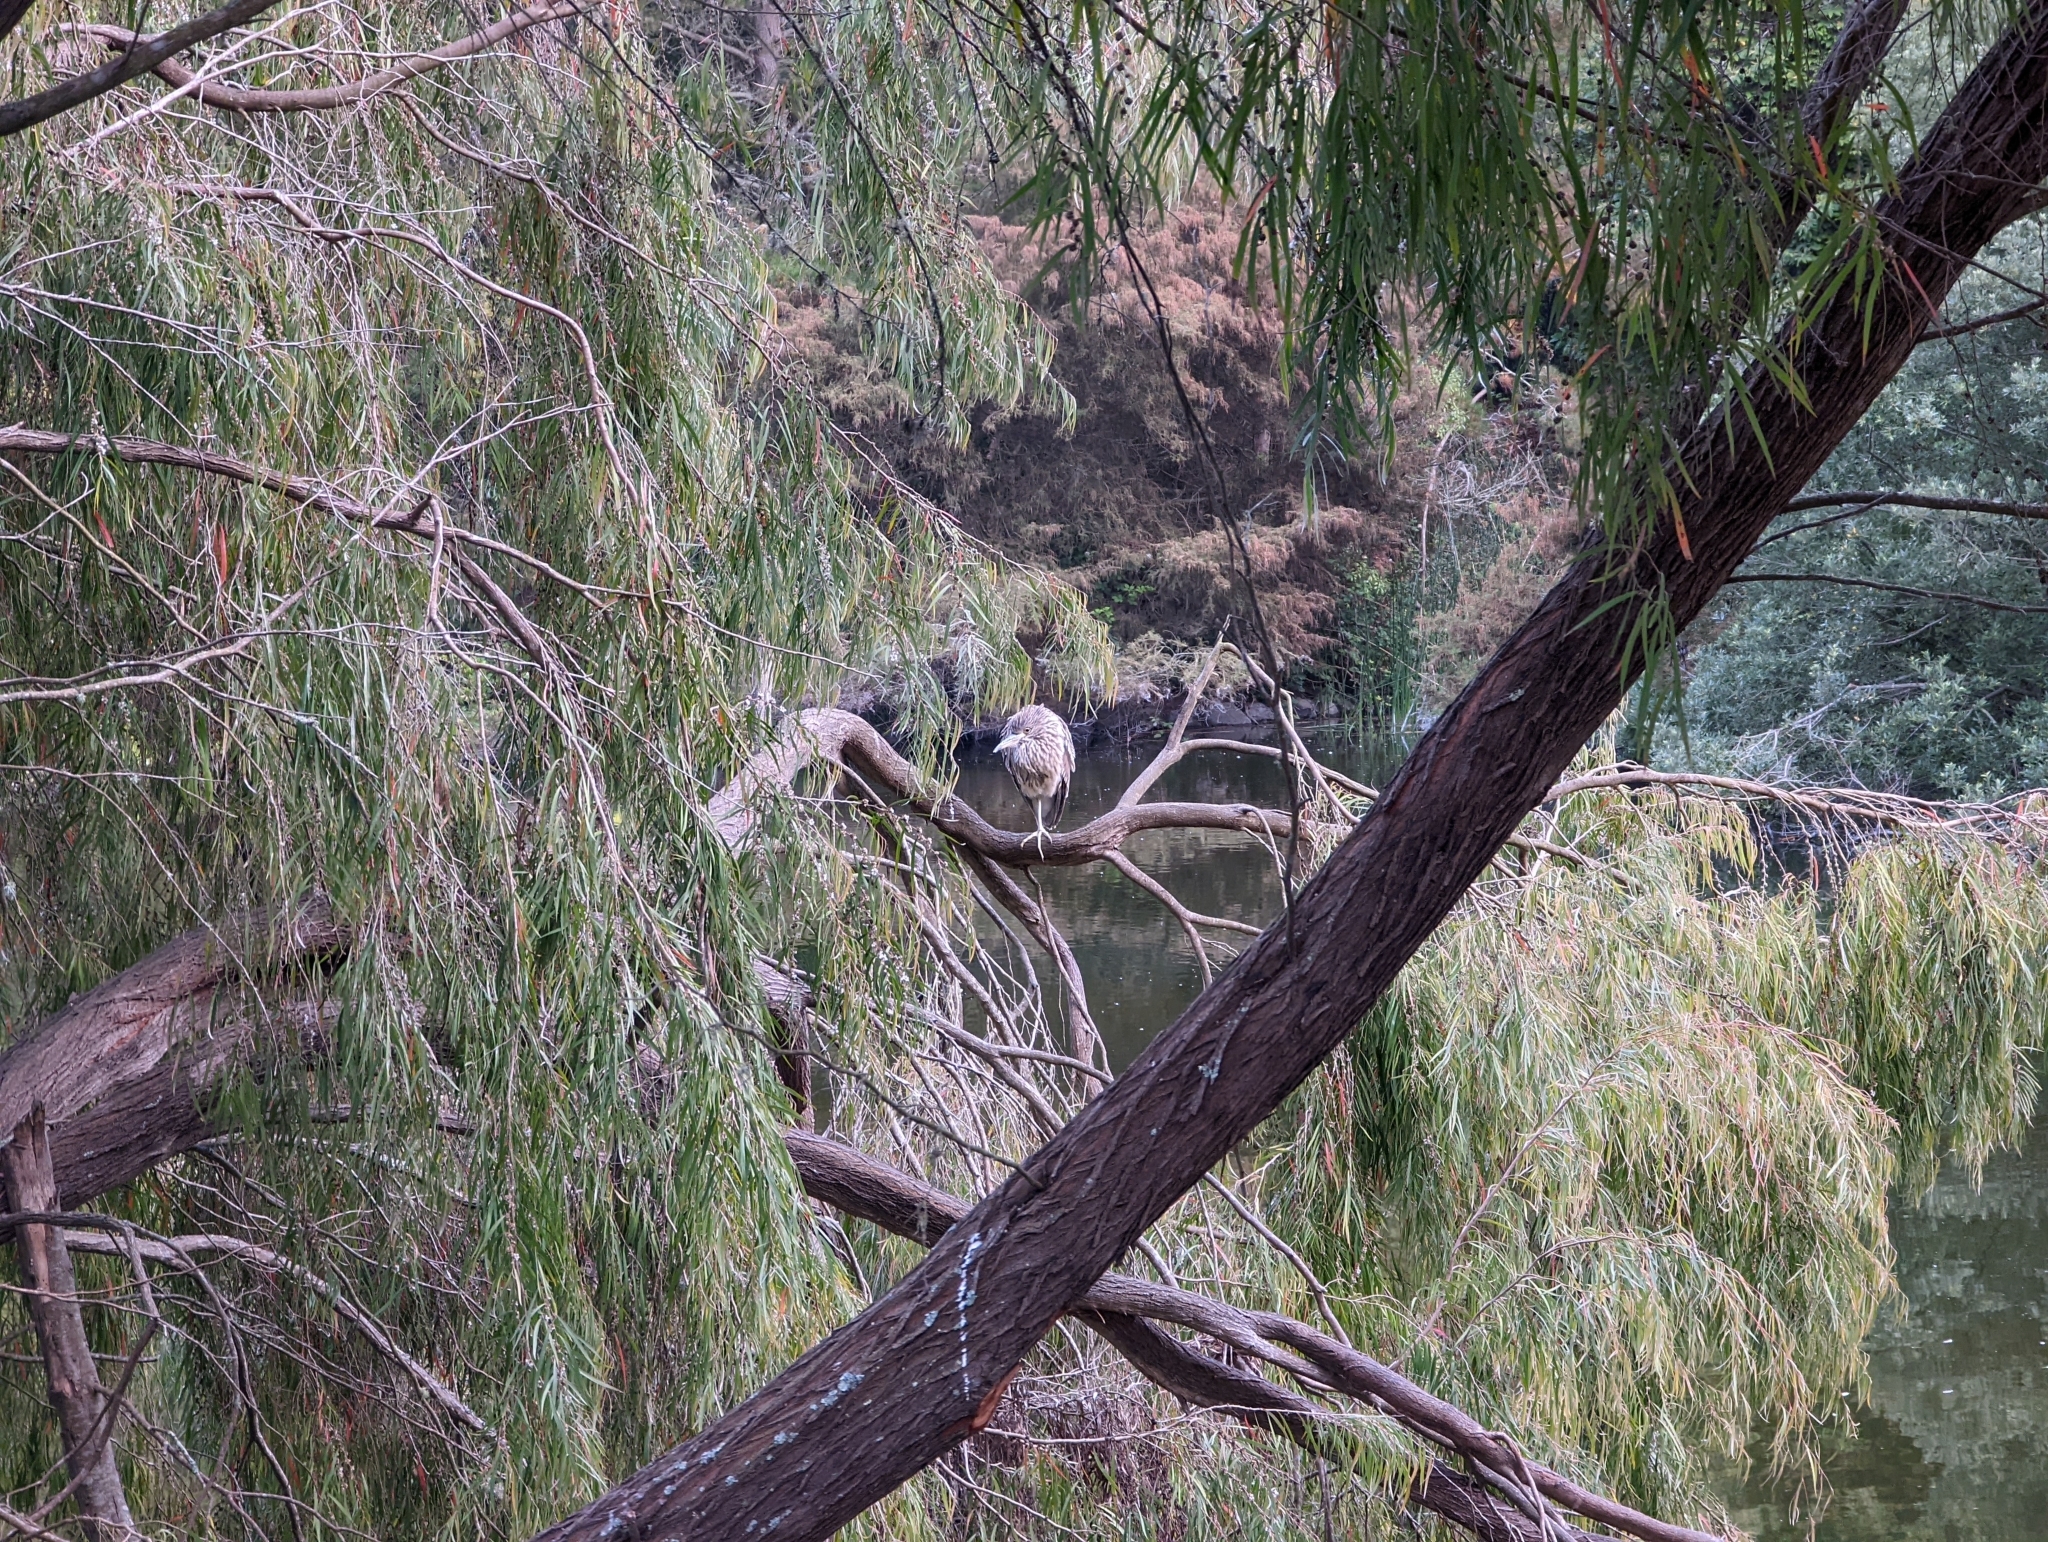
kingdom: Animalia
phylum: Chordata
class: Aves
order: Pelecaniformes
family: Ardeidae
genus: Nycticorax
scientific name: Nycticorax nycticorax
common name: Black-crowned night heron
